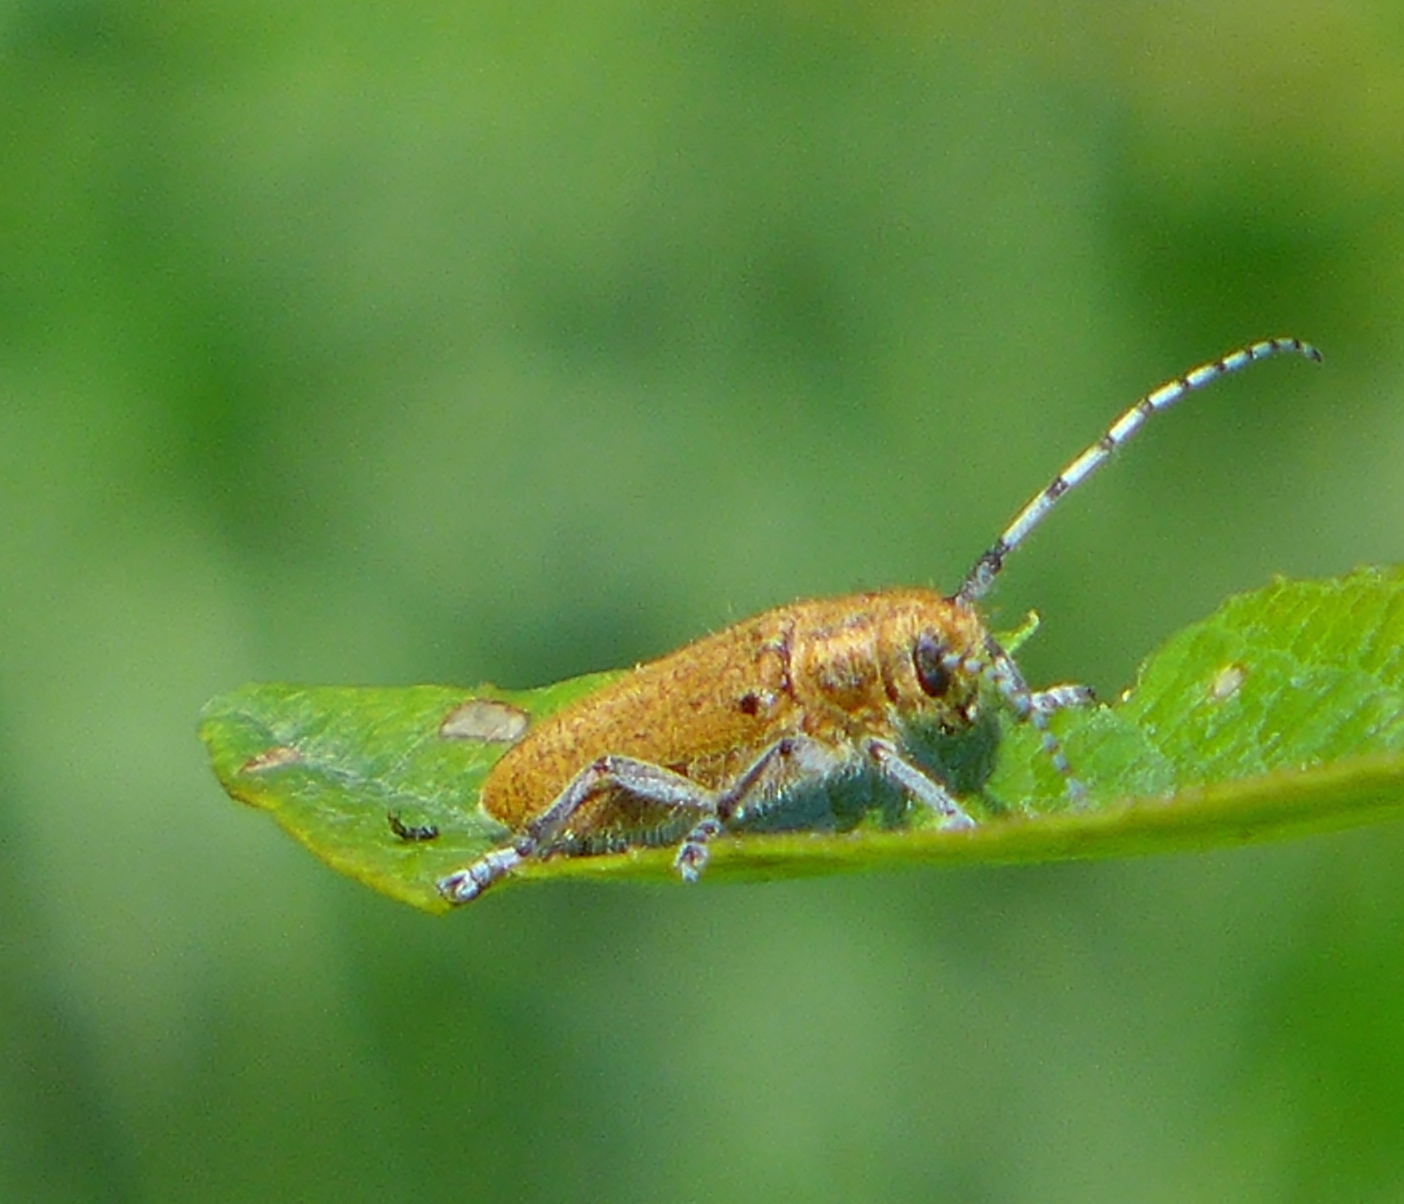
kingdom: Animalia
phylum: Arthropoda
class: Insecta
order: Coleoptera
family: Cerambycidae
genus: Saperda
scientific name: Saperda hornii
